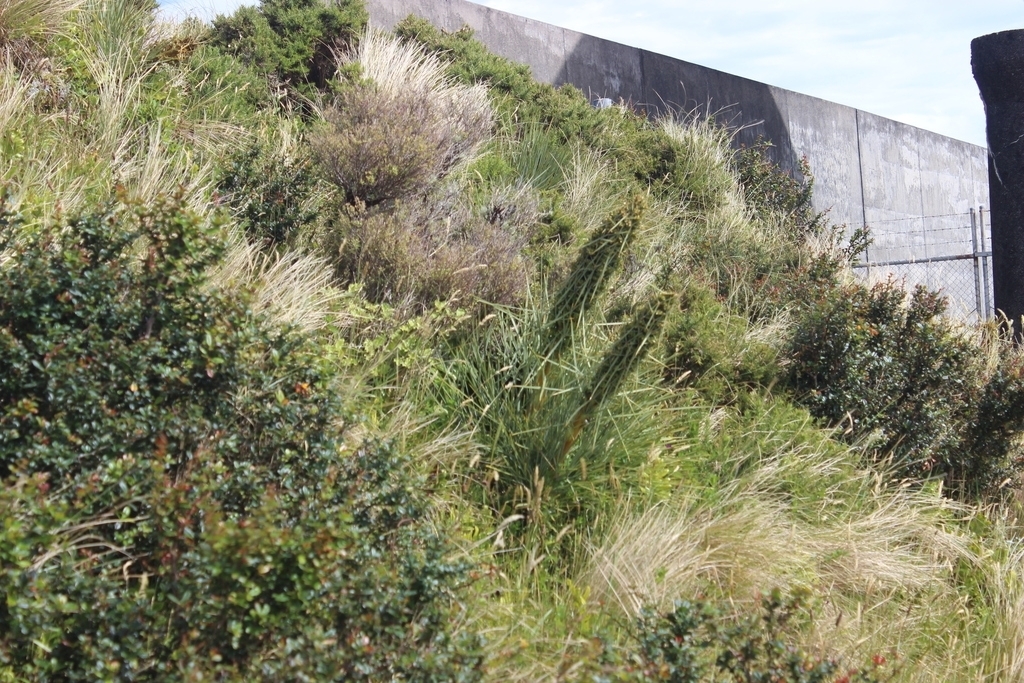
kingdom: Plantae
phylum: Tracheophyta
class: Magnoliopsida
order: Apiales
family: Apiaceae
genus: Aciphylla
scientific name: Aciphylla squarrosa
